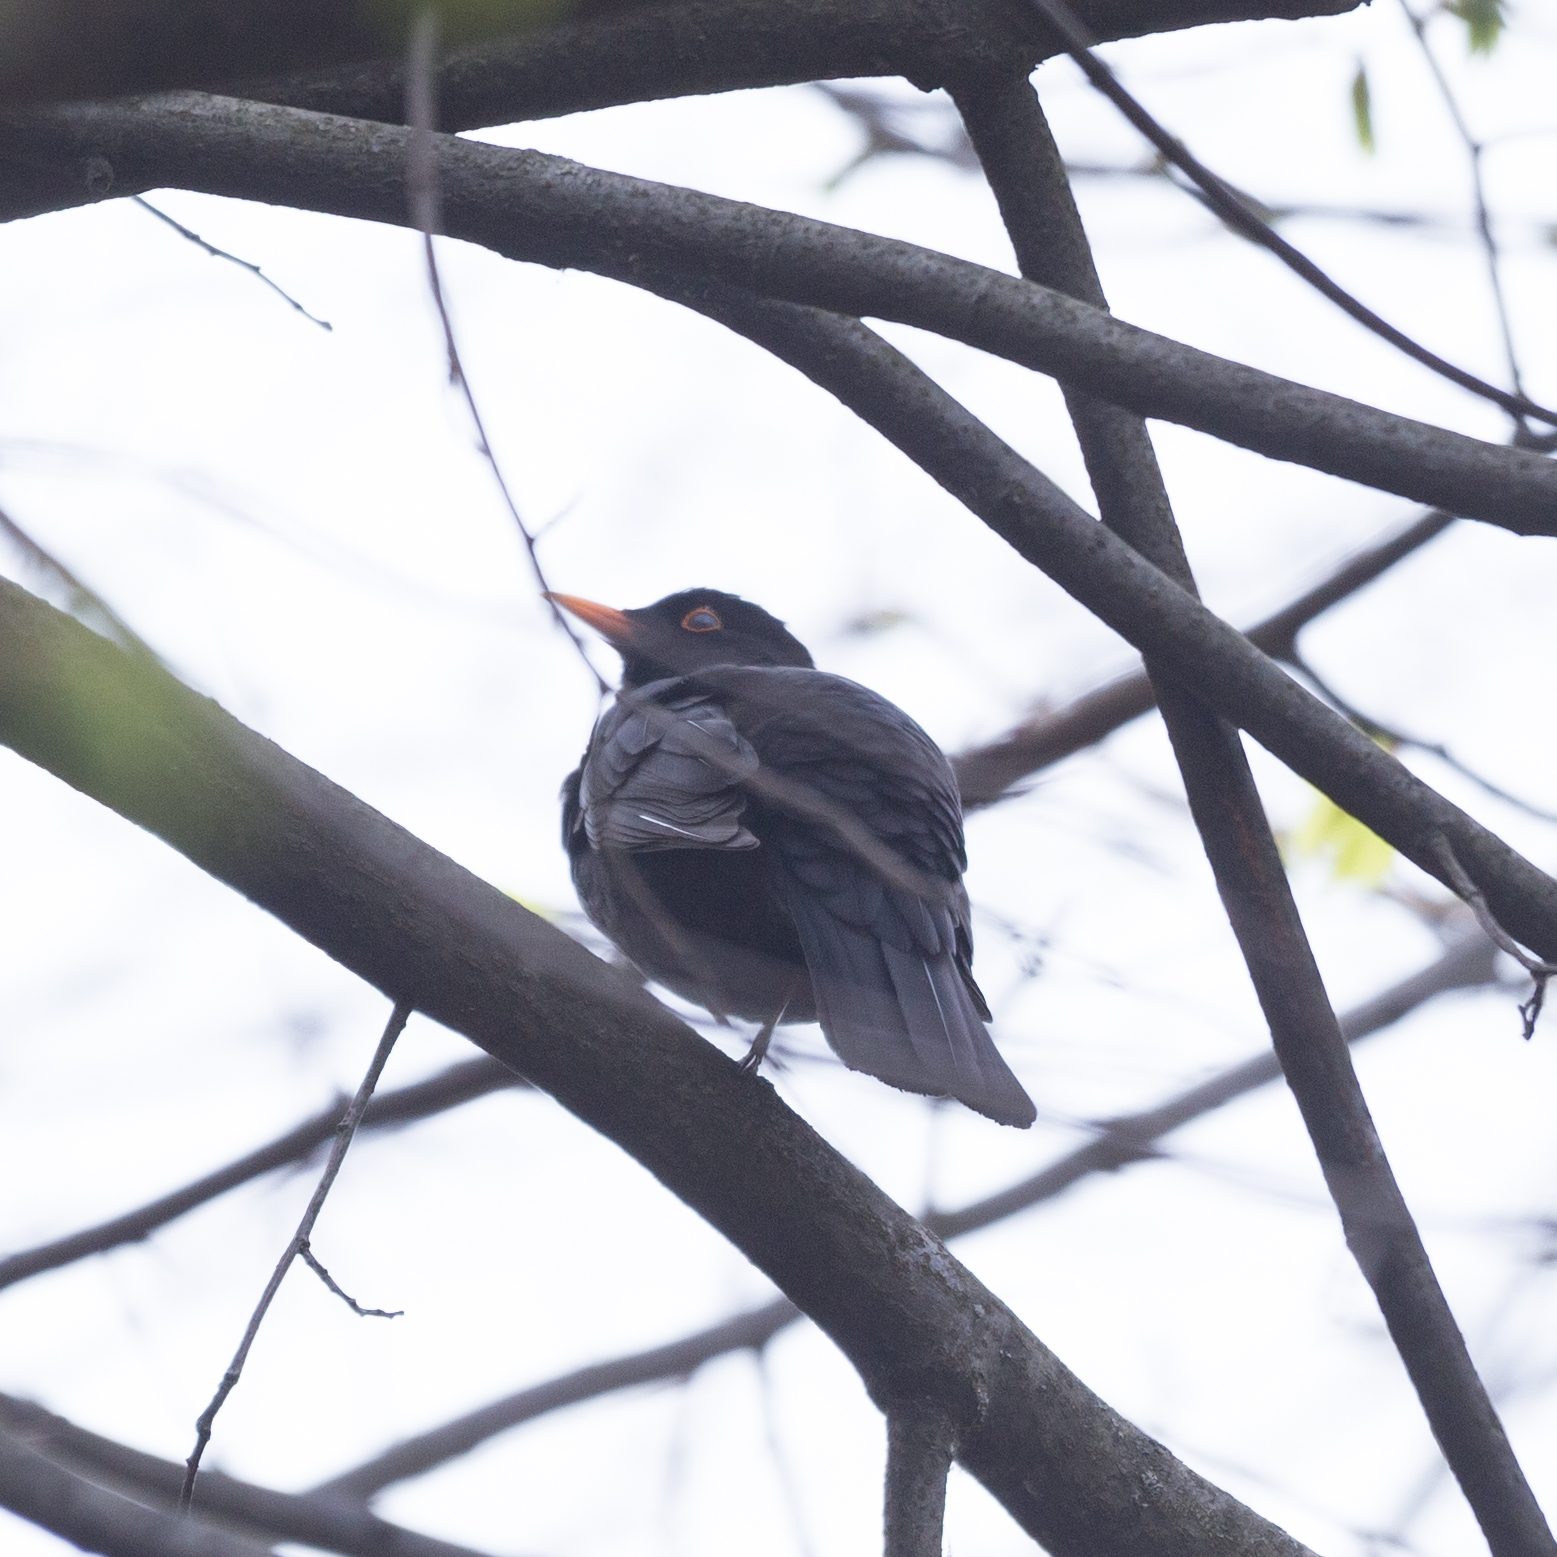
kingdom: Animalia
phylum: Chordata
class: Aves
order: Passeriformes
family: Turdidae
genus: Turdus
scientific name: Turdus merula
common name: Common blackbird
